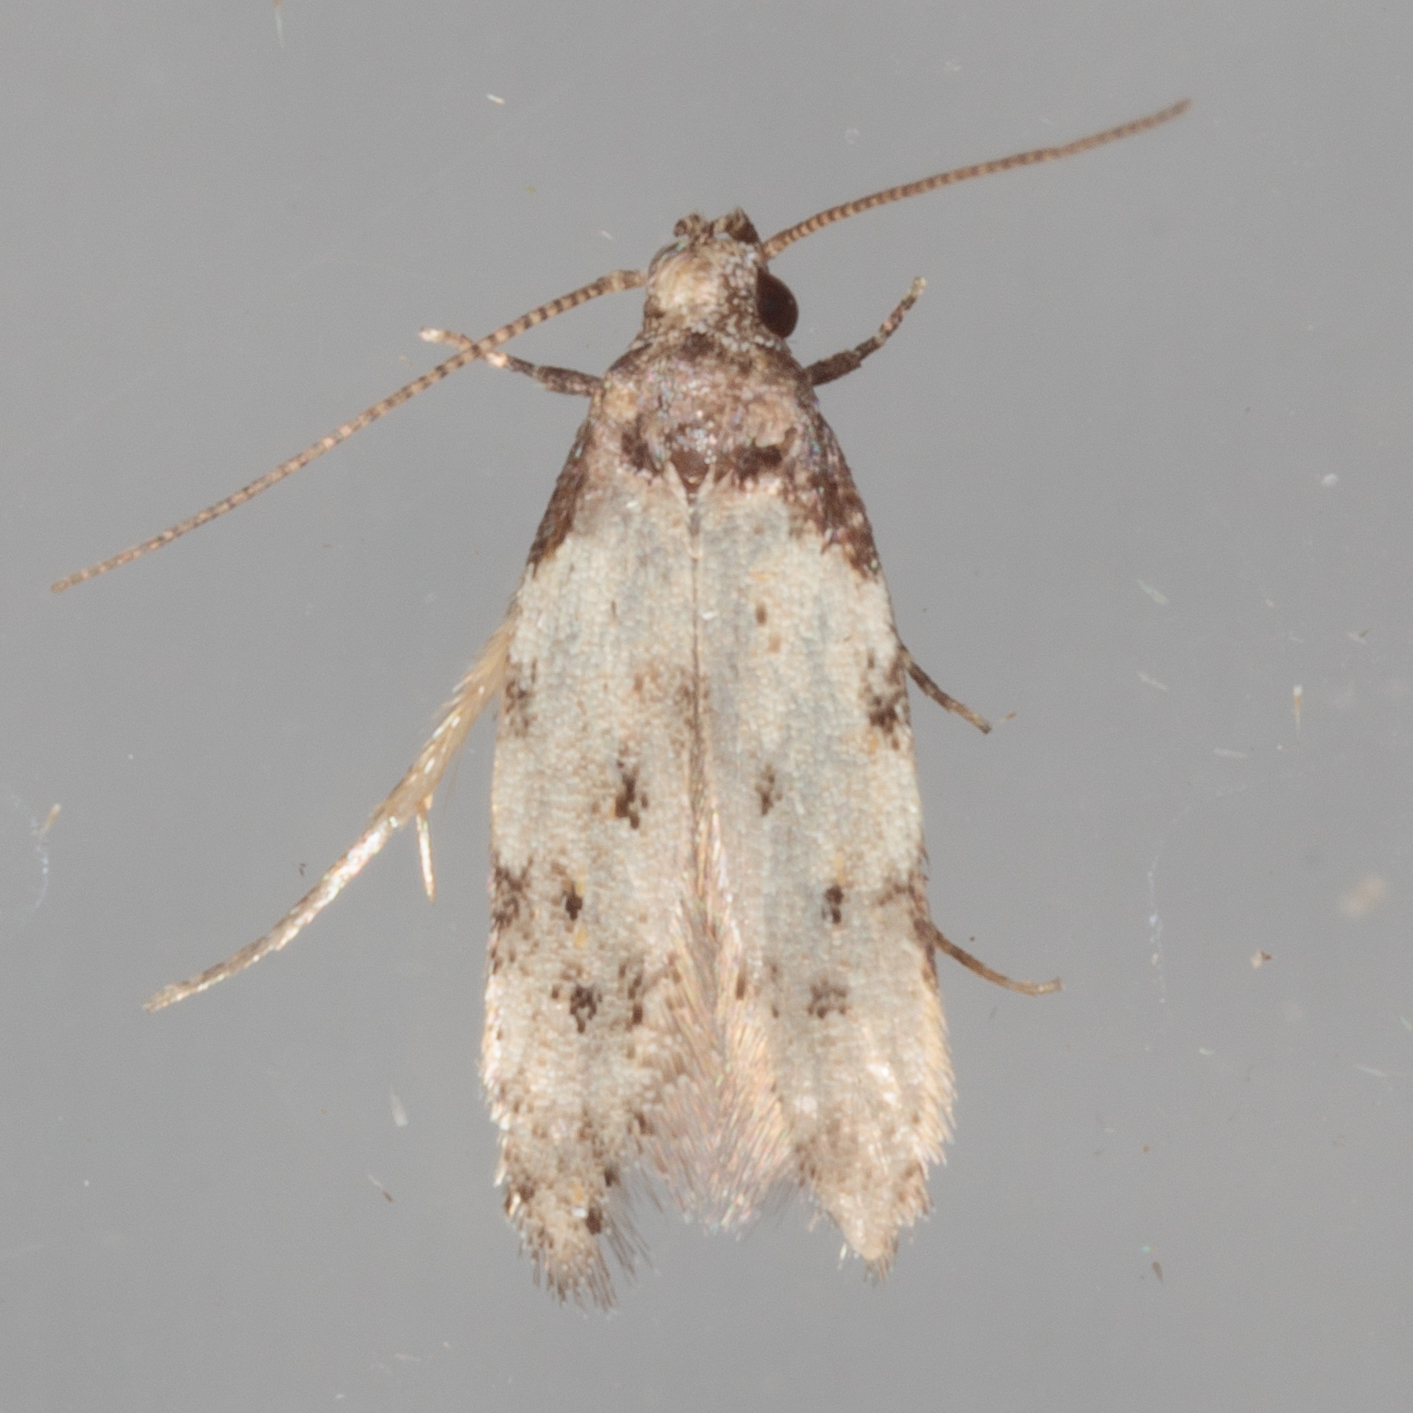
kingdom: Animalia
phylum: Arthropoda
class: Insecta
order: Lepidoptera
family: Autostichidae
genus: Taygete
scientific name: Taygete attributella
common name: Triangle-marked twirler moth
